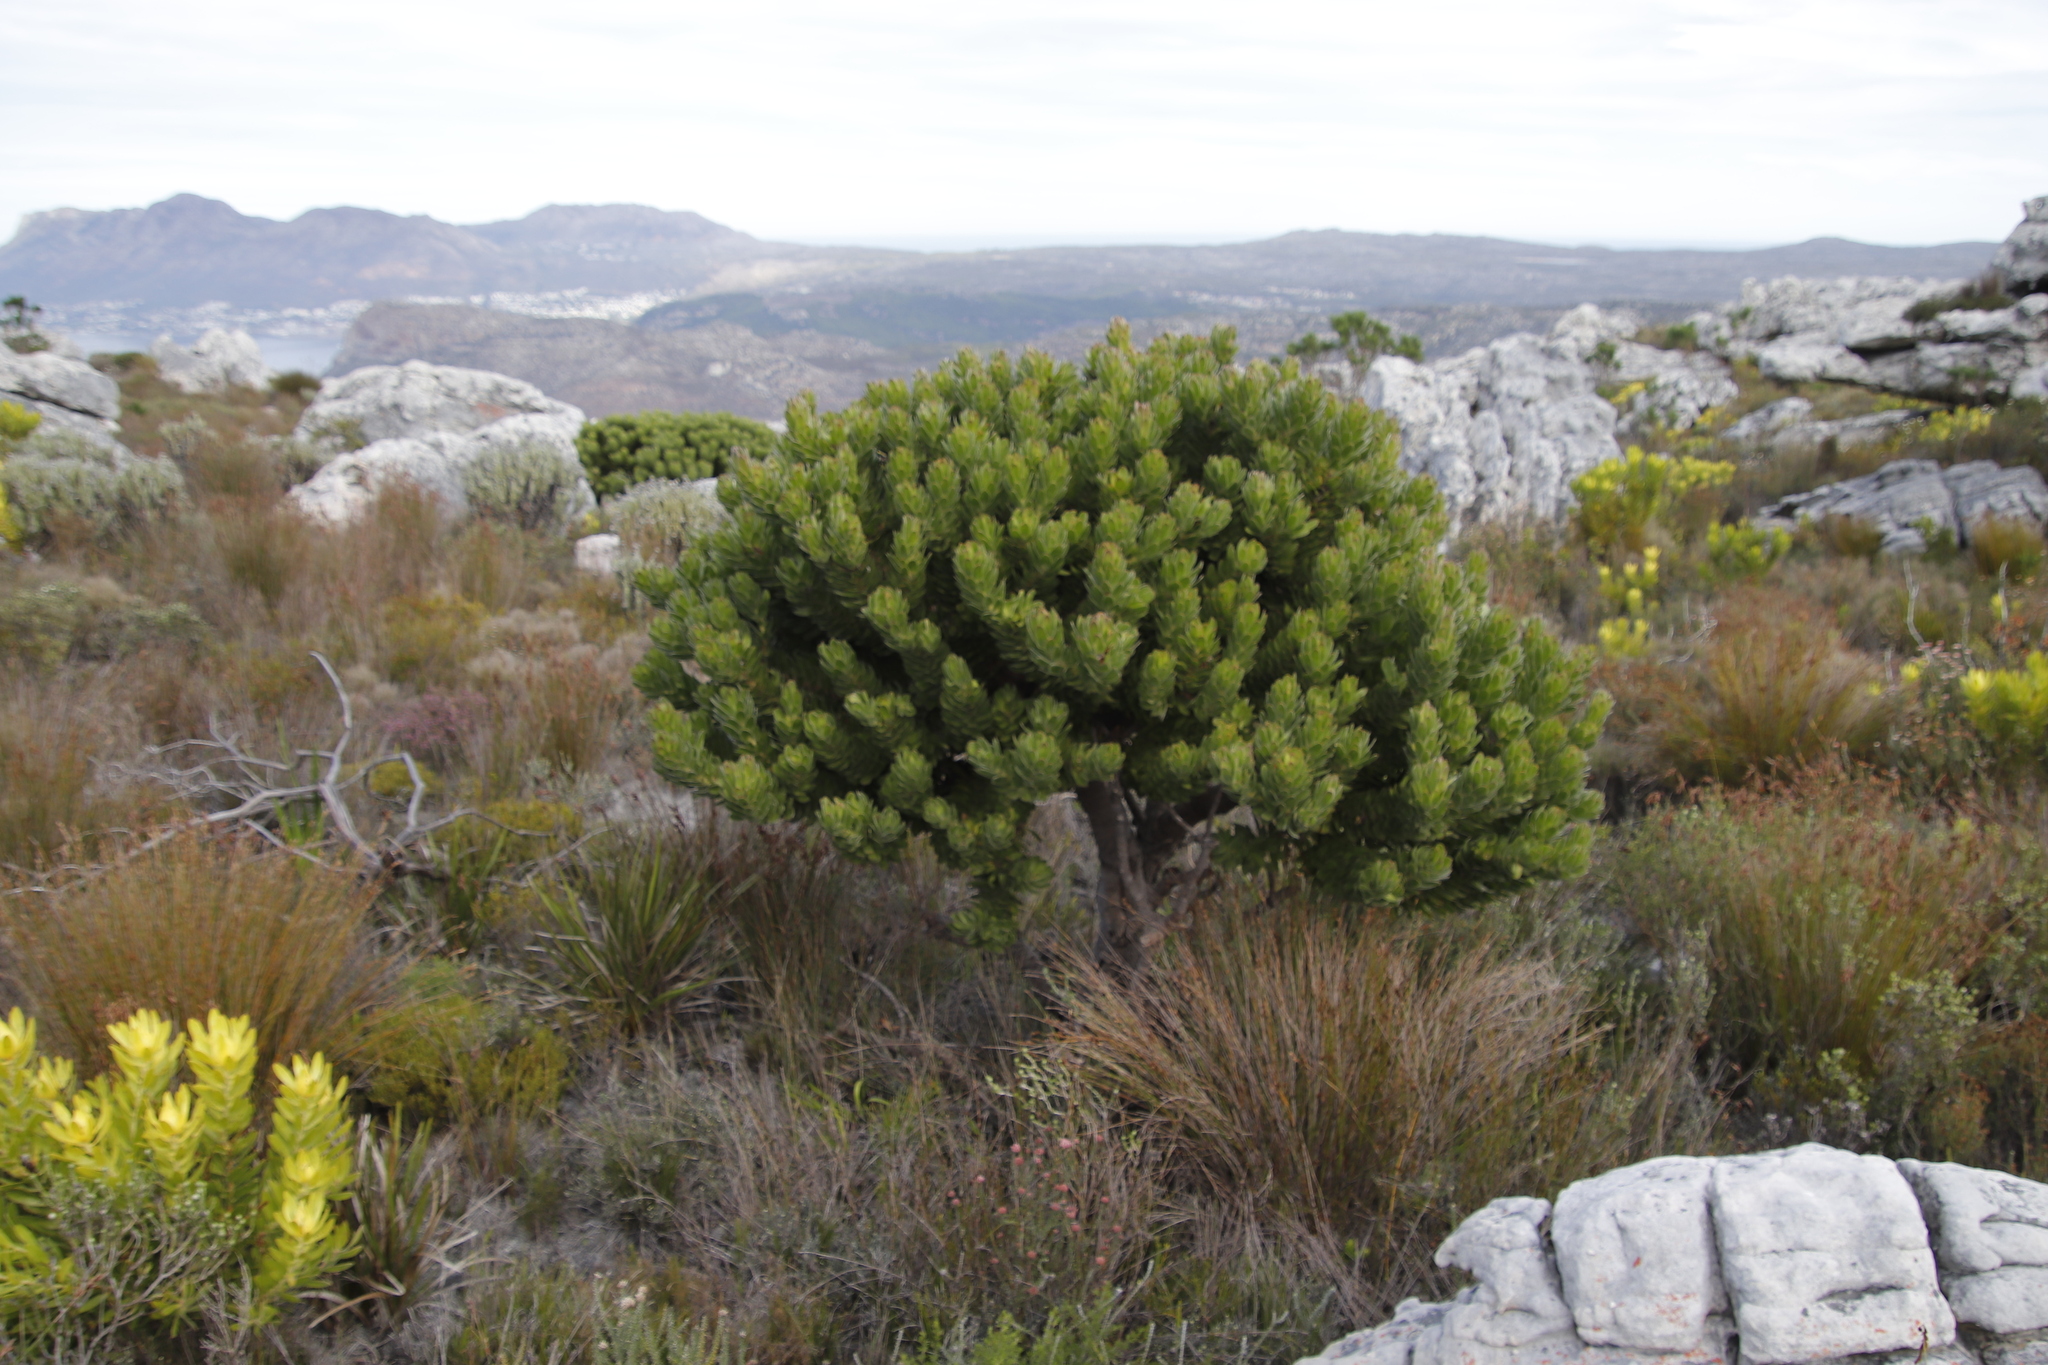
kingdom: Plantae
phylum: Tracheophyta
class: Magnoliopsida
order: Proteales
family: Proteaceae
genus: Mimetes
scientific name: Mimetes fimbriifolius
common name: Fringed bottlebrush
